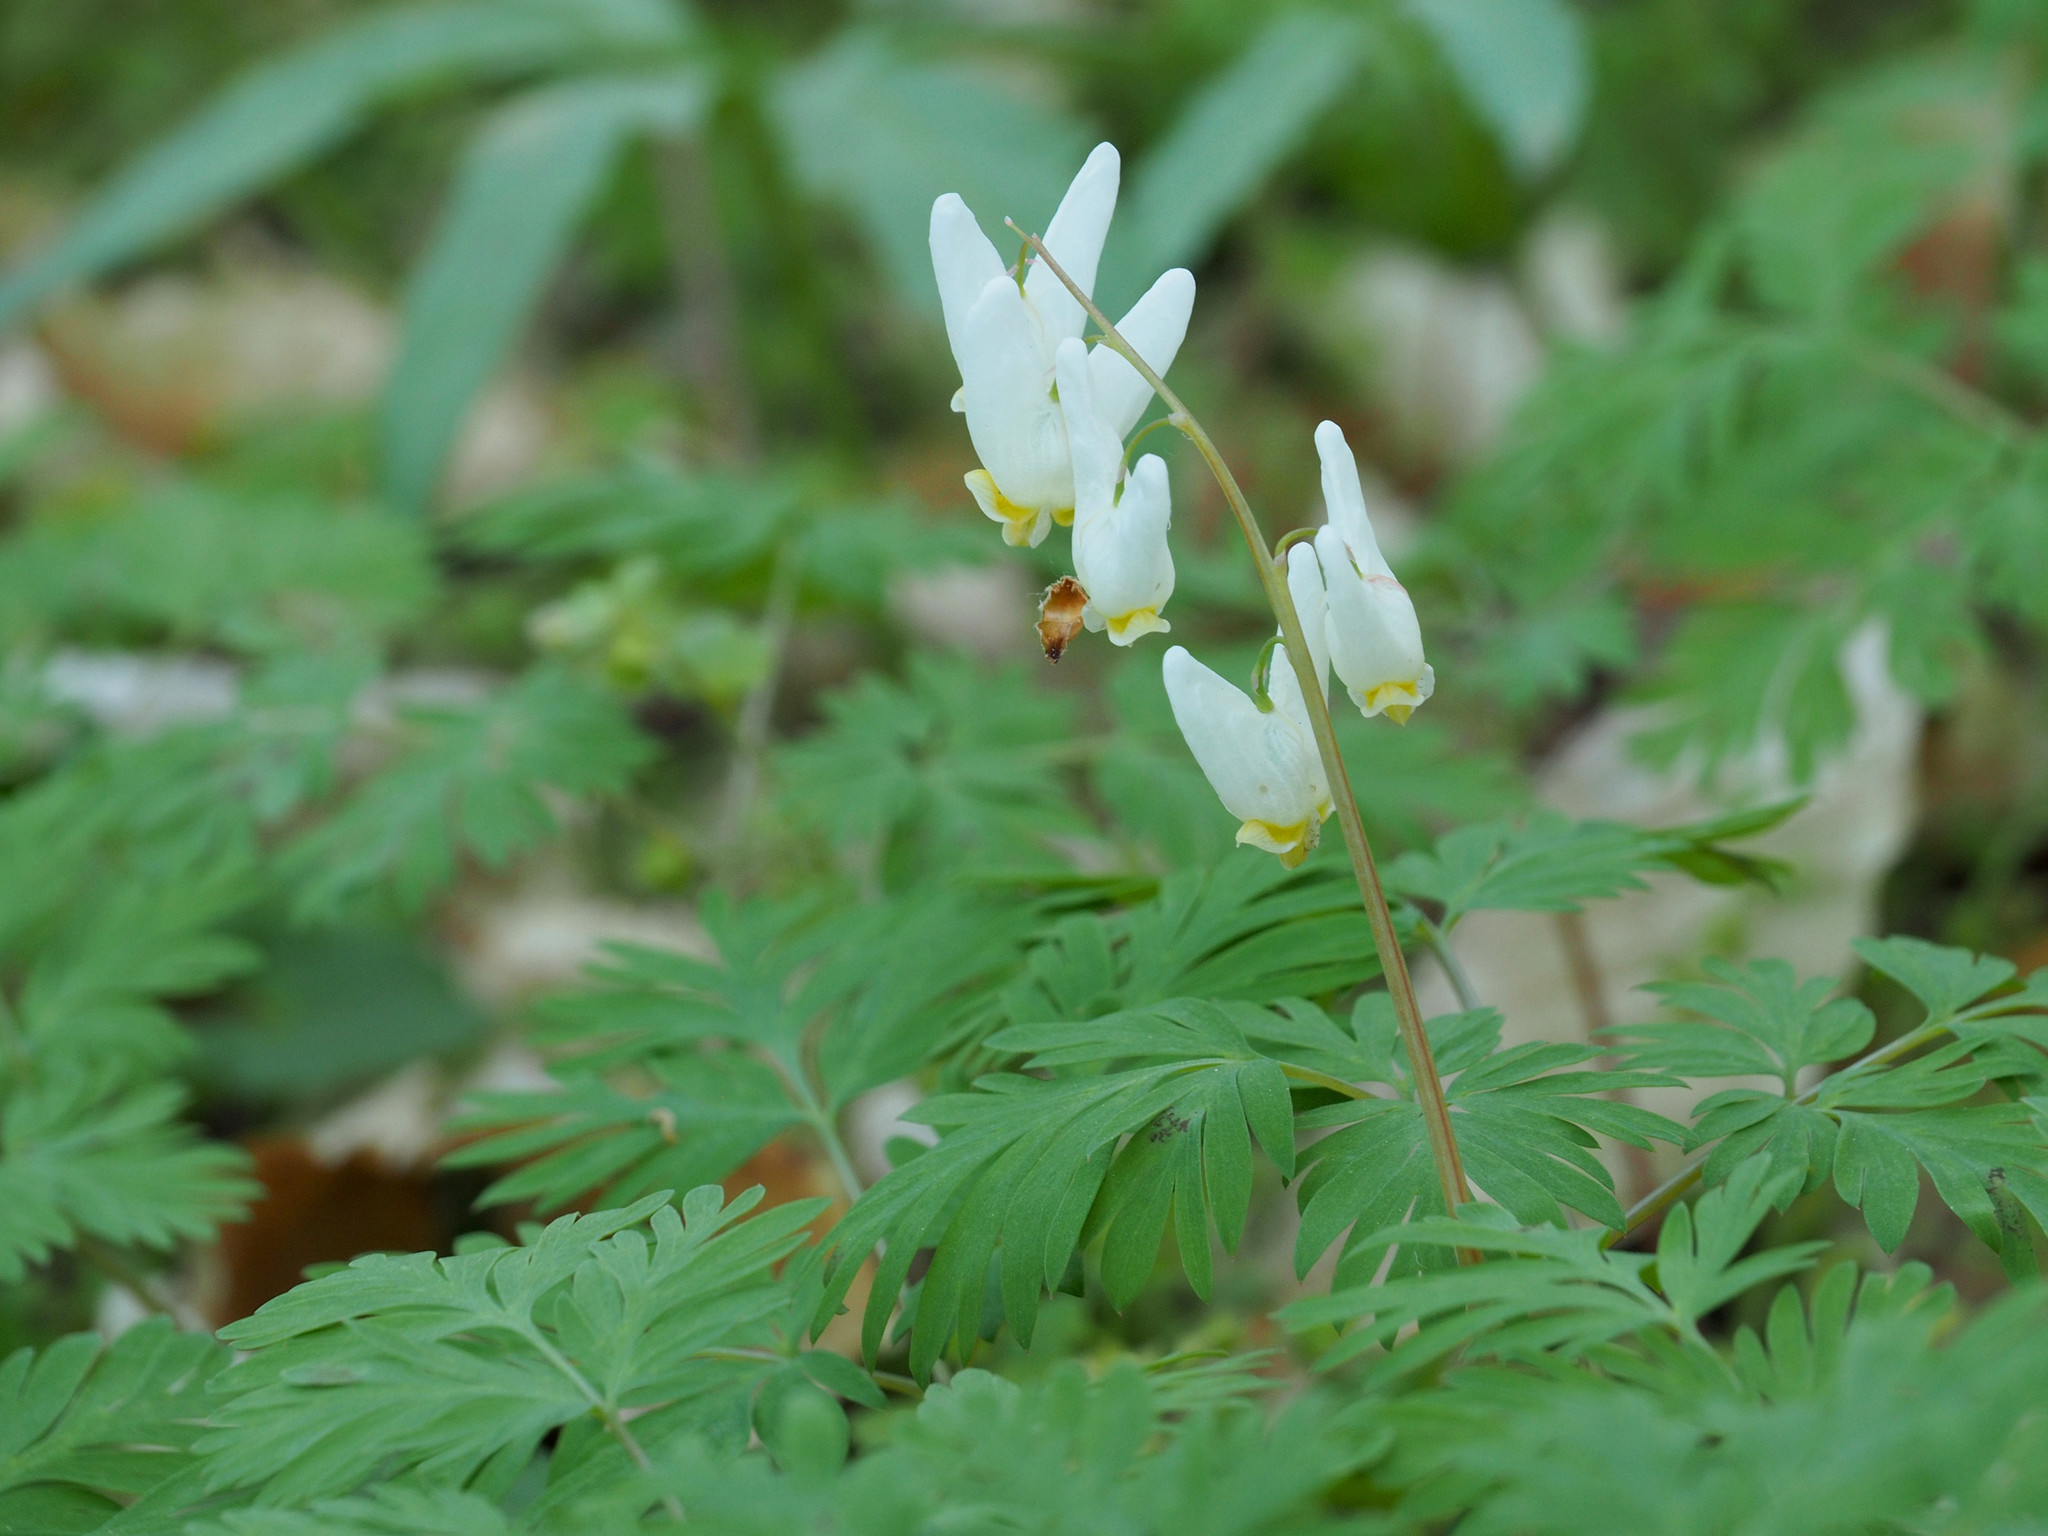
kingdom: Plantae
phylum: Tracheophyta
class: Magnoliopsida
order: Ranunculales
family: Papaveraceae
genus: Dicentra
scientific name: Dicentra cucullaria
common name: Dutchman's breeches
